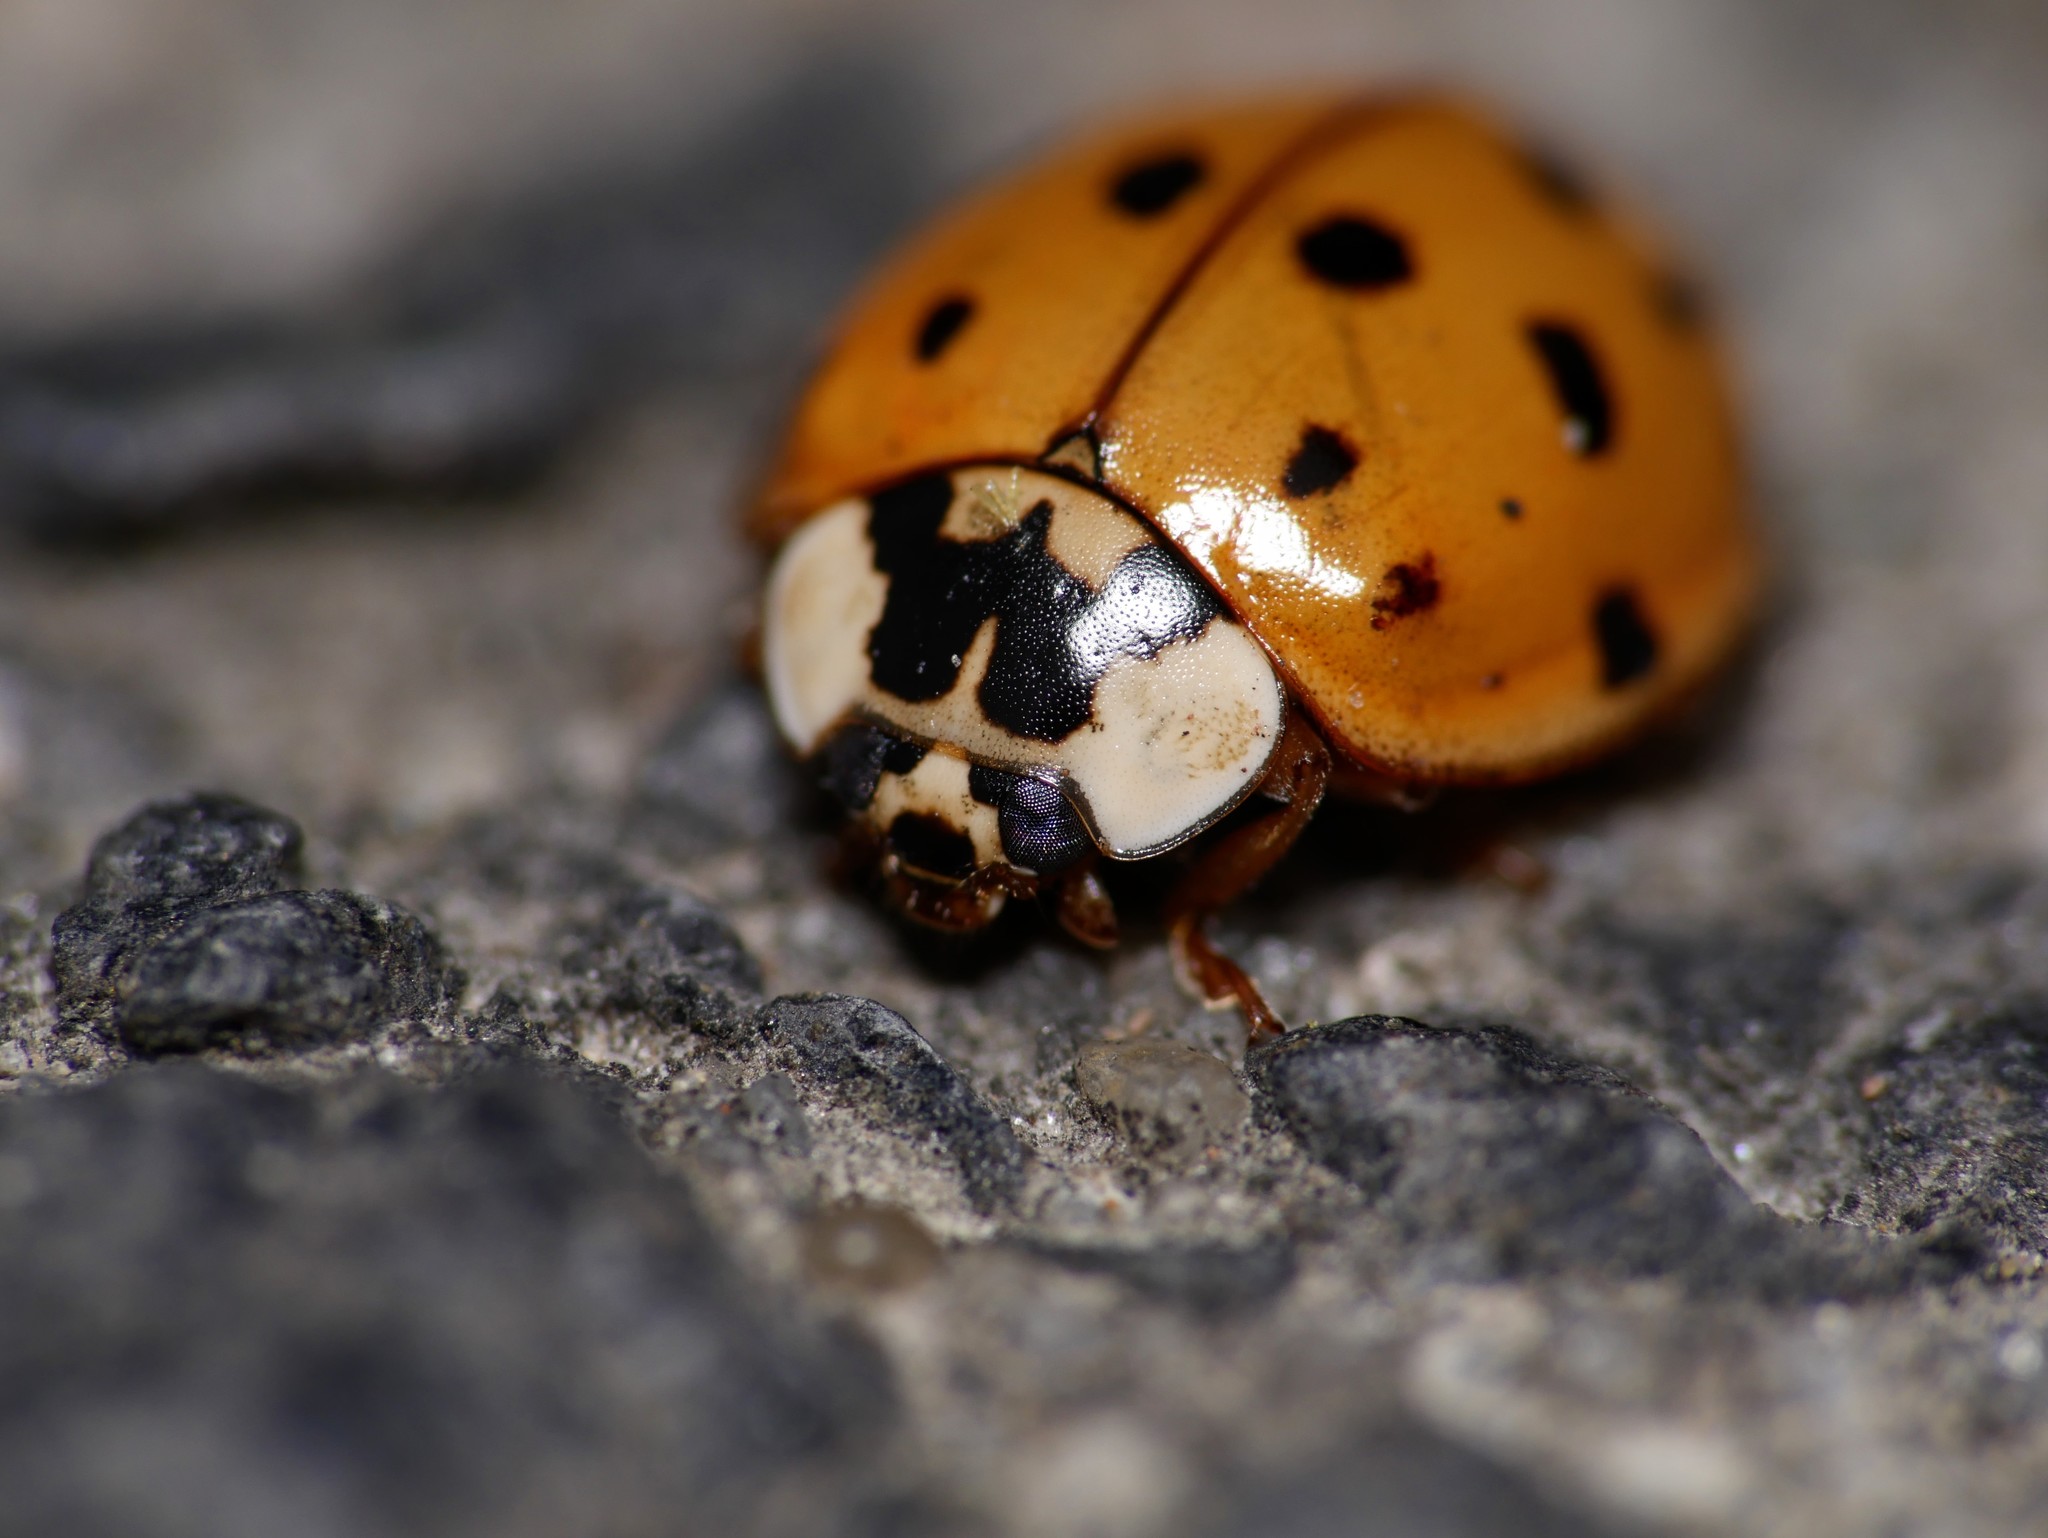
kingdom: Animalia
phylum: Arthropoda
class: Insecta
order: Coleoptera
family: Coccinellidae
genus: Harmonia
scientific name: Harmonia axyridis
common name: Harlequin ladybird
